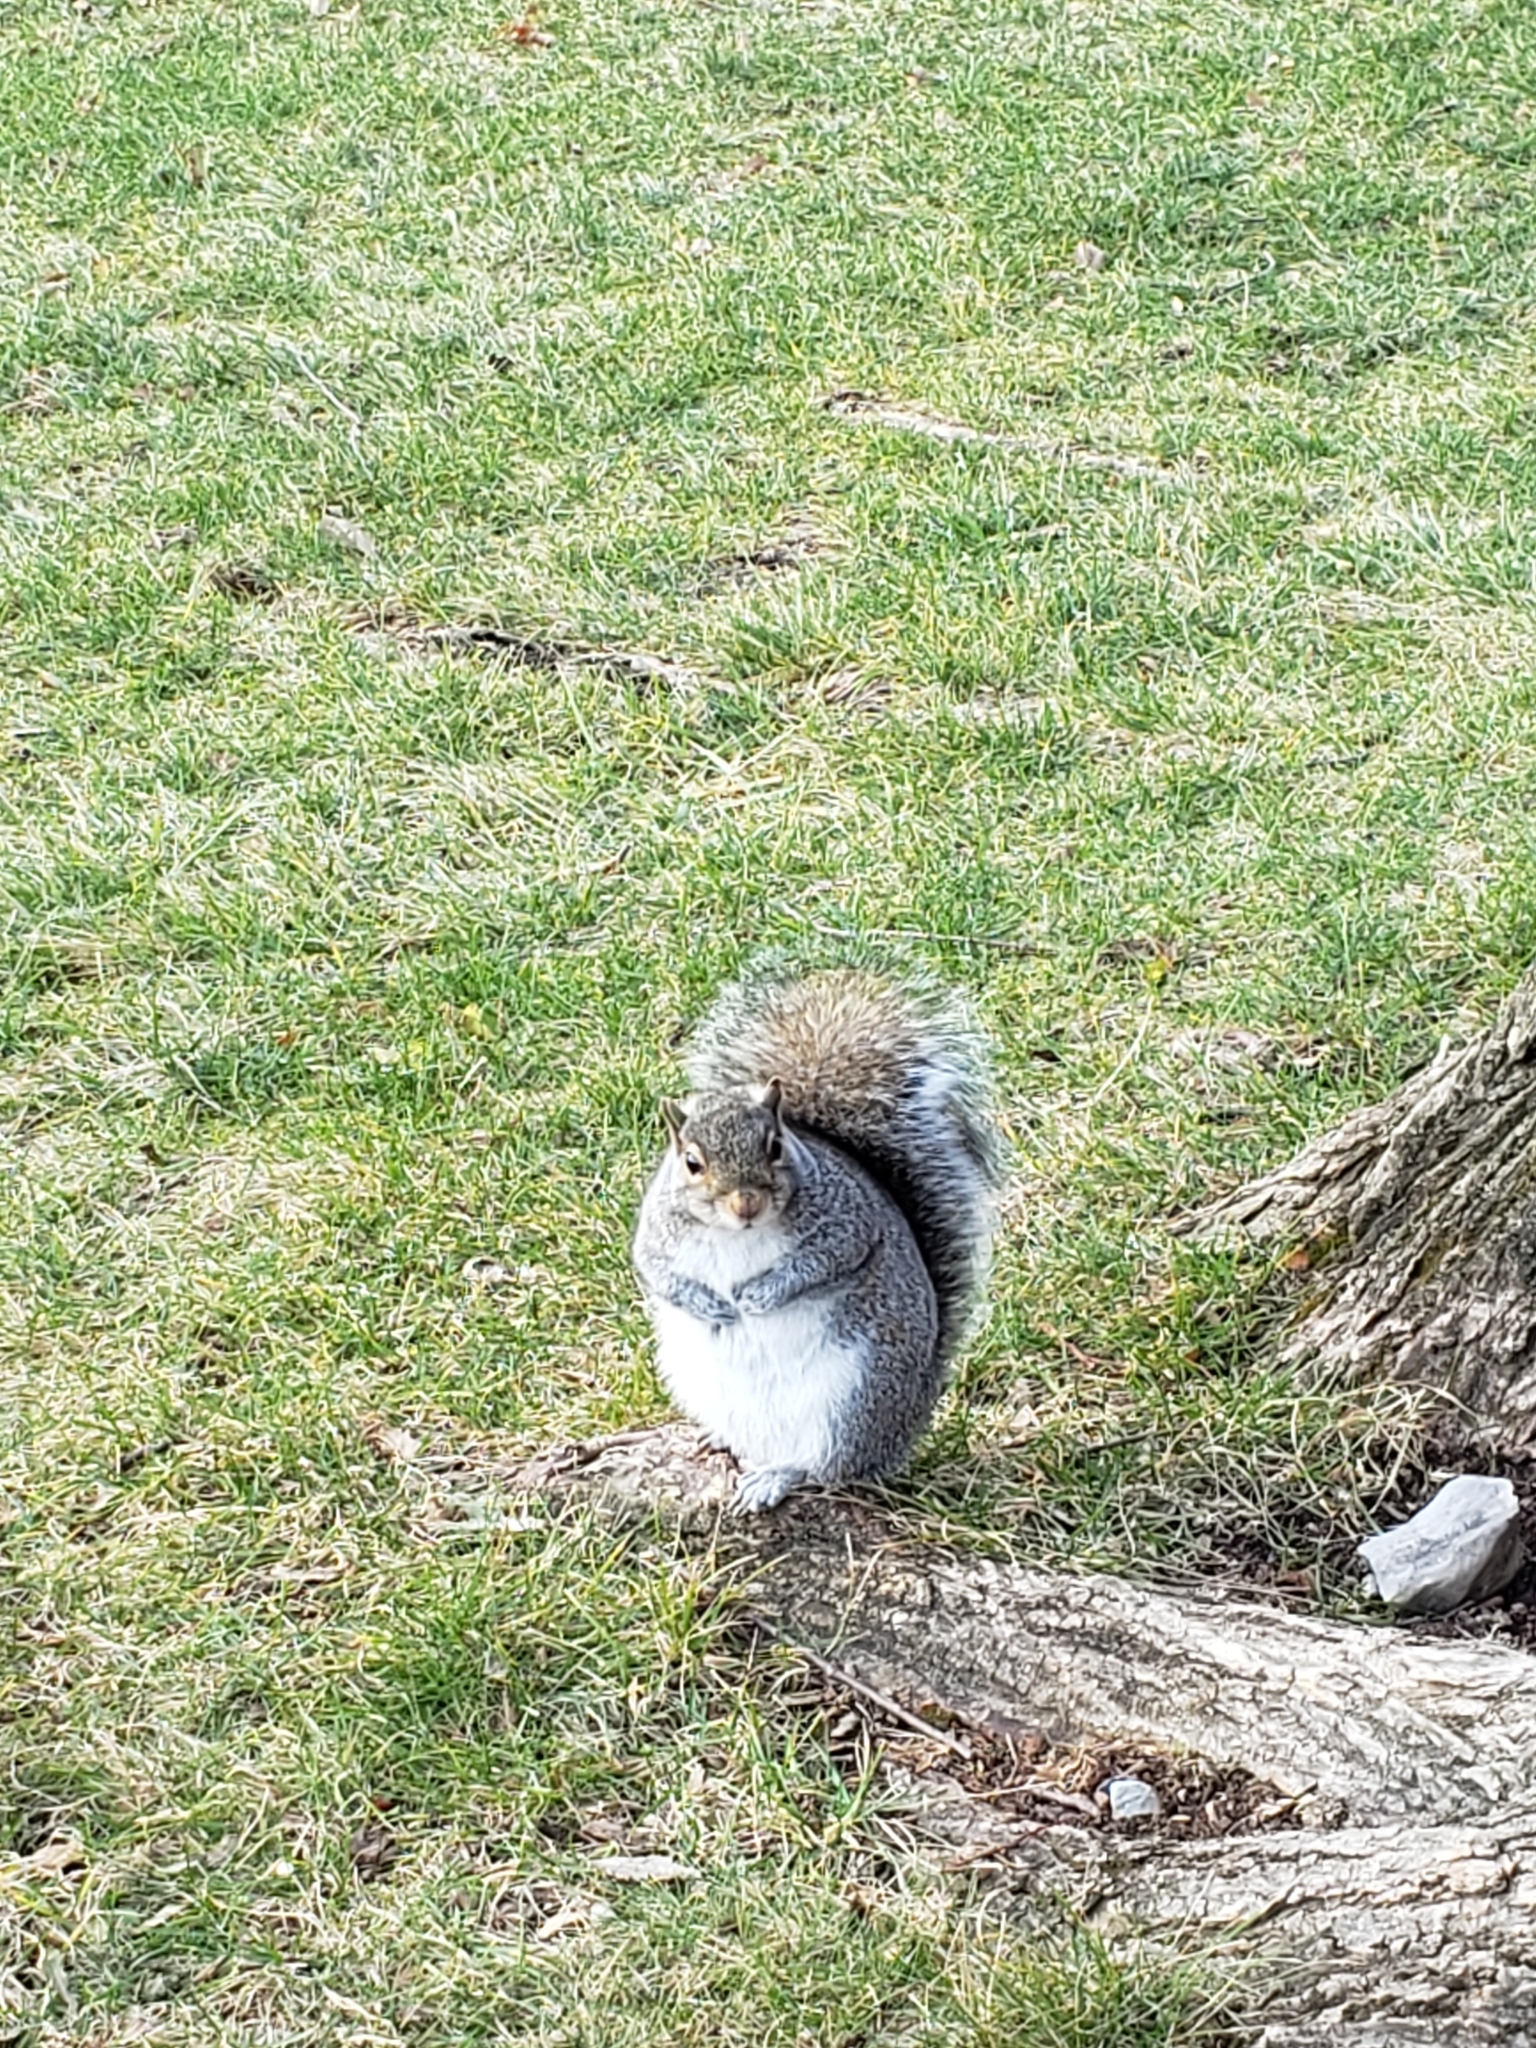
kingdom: Animalia
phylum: Chordata
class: Mammalia
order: Rodentia
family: Sciuridae
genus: Sciurus
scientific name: Sciurus carolinensis
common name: Eastern gray squirrel
